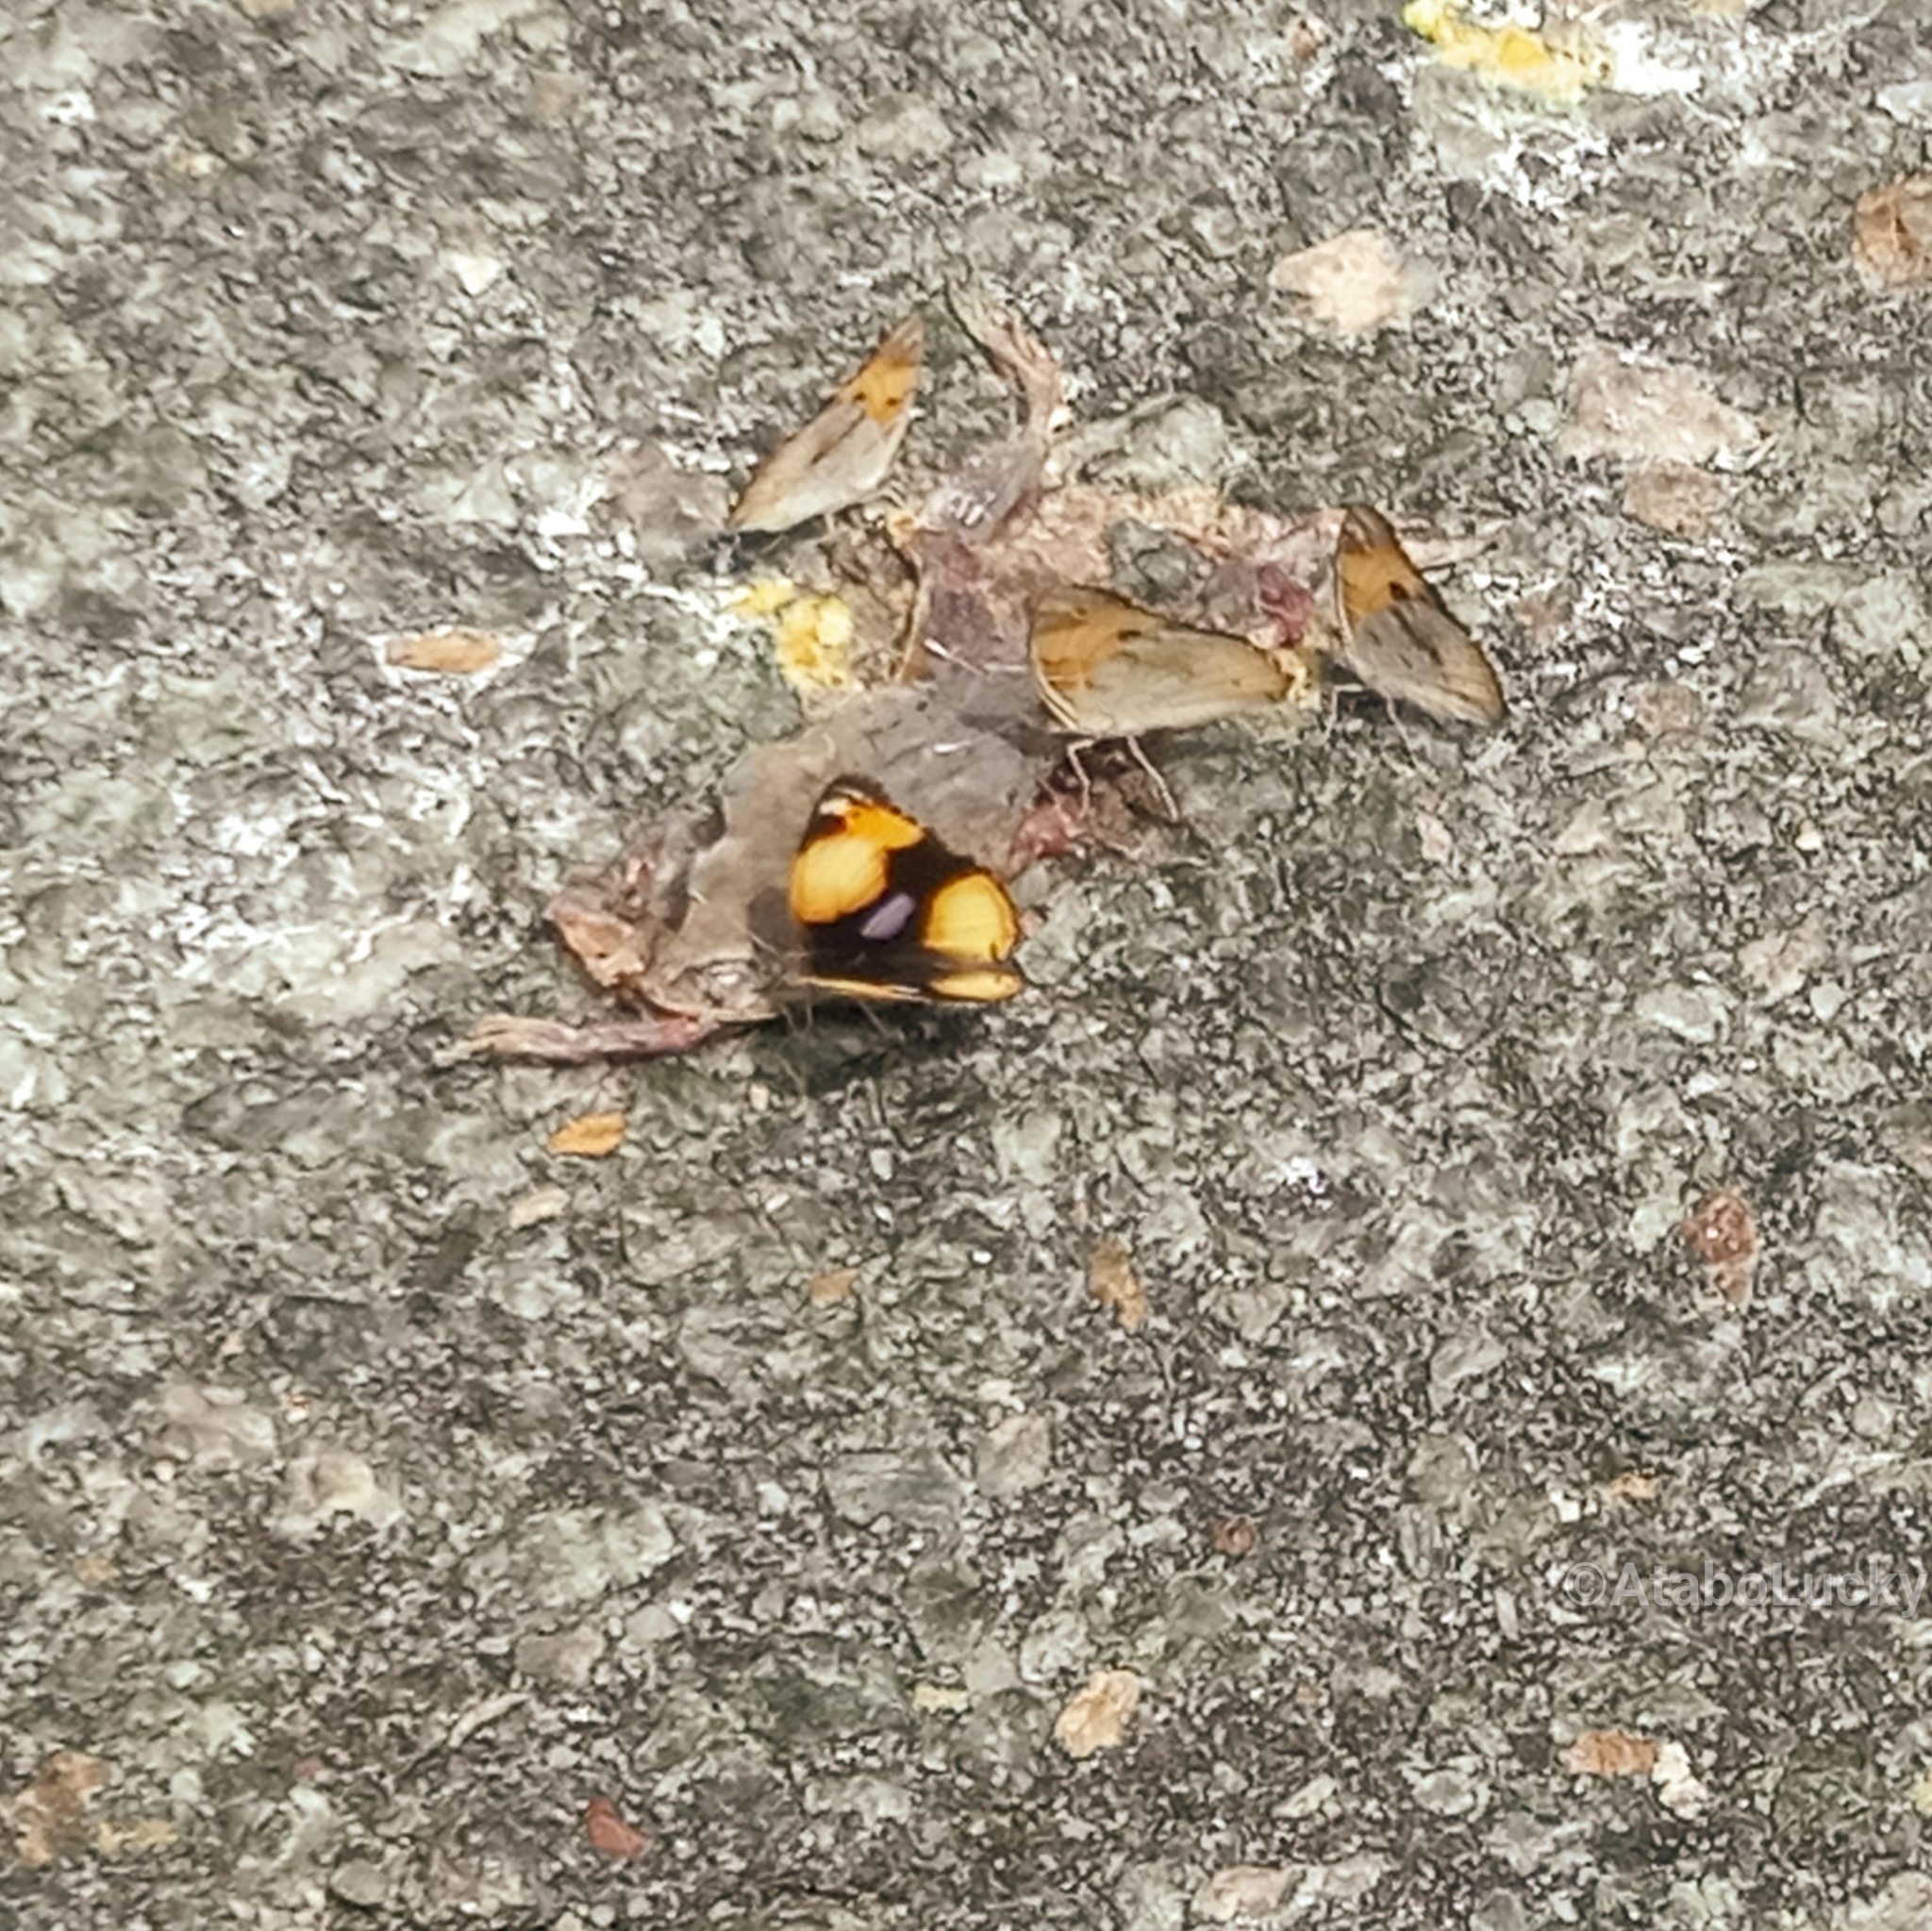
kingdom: Animalia
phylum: Arthropoda
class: Insecta
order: Lepidoptera
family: Nymphalidae
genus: Junonia
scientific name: Junonia hierta
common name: Yellow pansy
